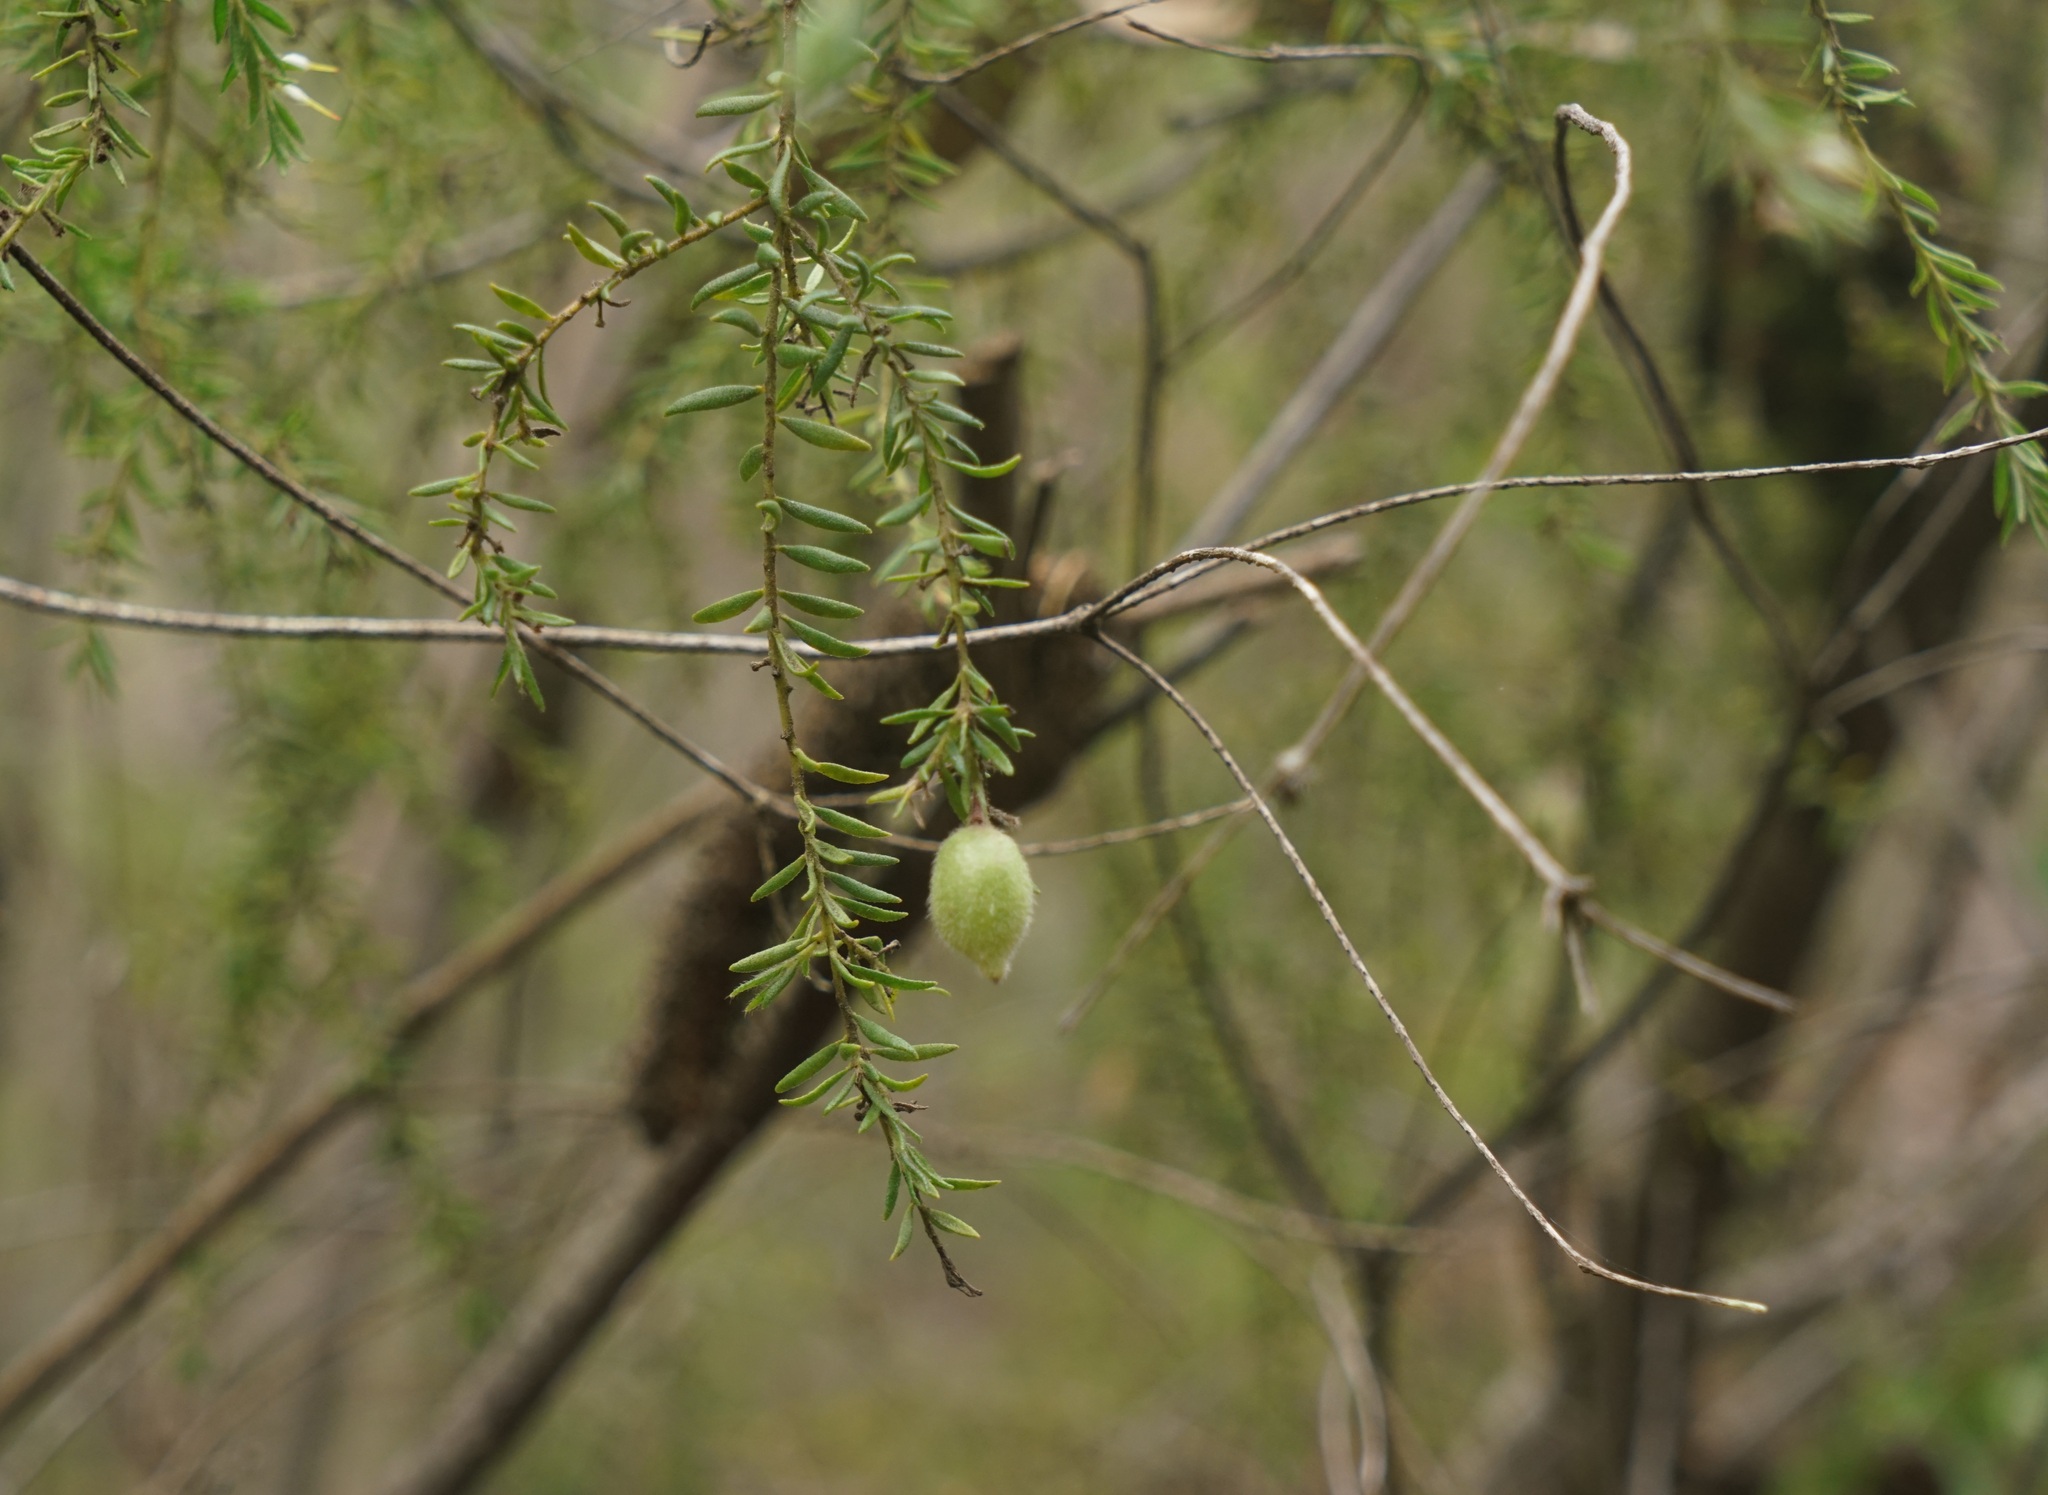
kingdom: Plantae
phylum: Tracheophyta
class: Magnoliopsida
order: Proteales
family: Proteaceae
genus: Persoonia
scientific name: Persoonia hirsuta
